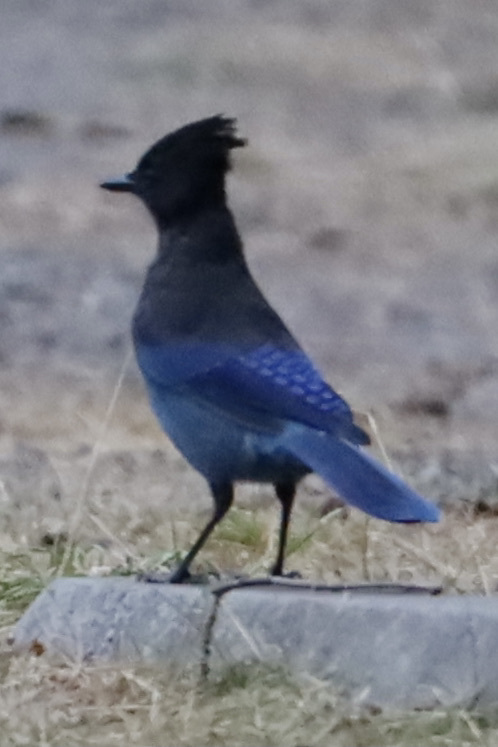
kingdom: Animalia
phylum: Chordata
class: Aves
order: Passeriformes
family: Corvidae
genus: Cyanocitta
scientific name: Cyanocitta stelleri
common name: Steller's jay
